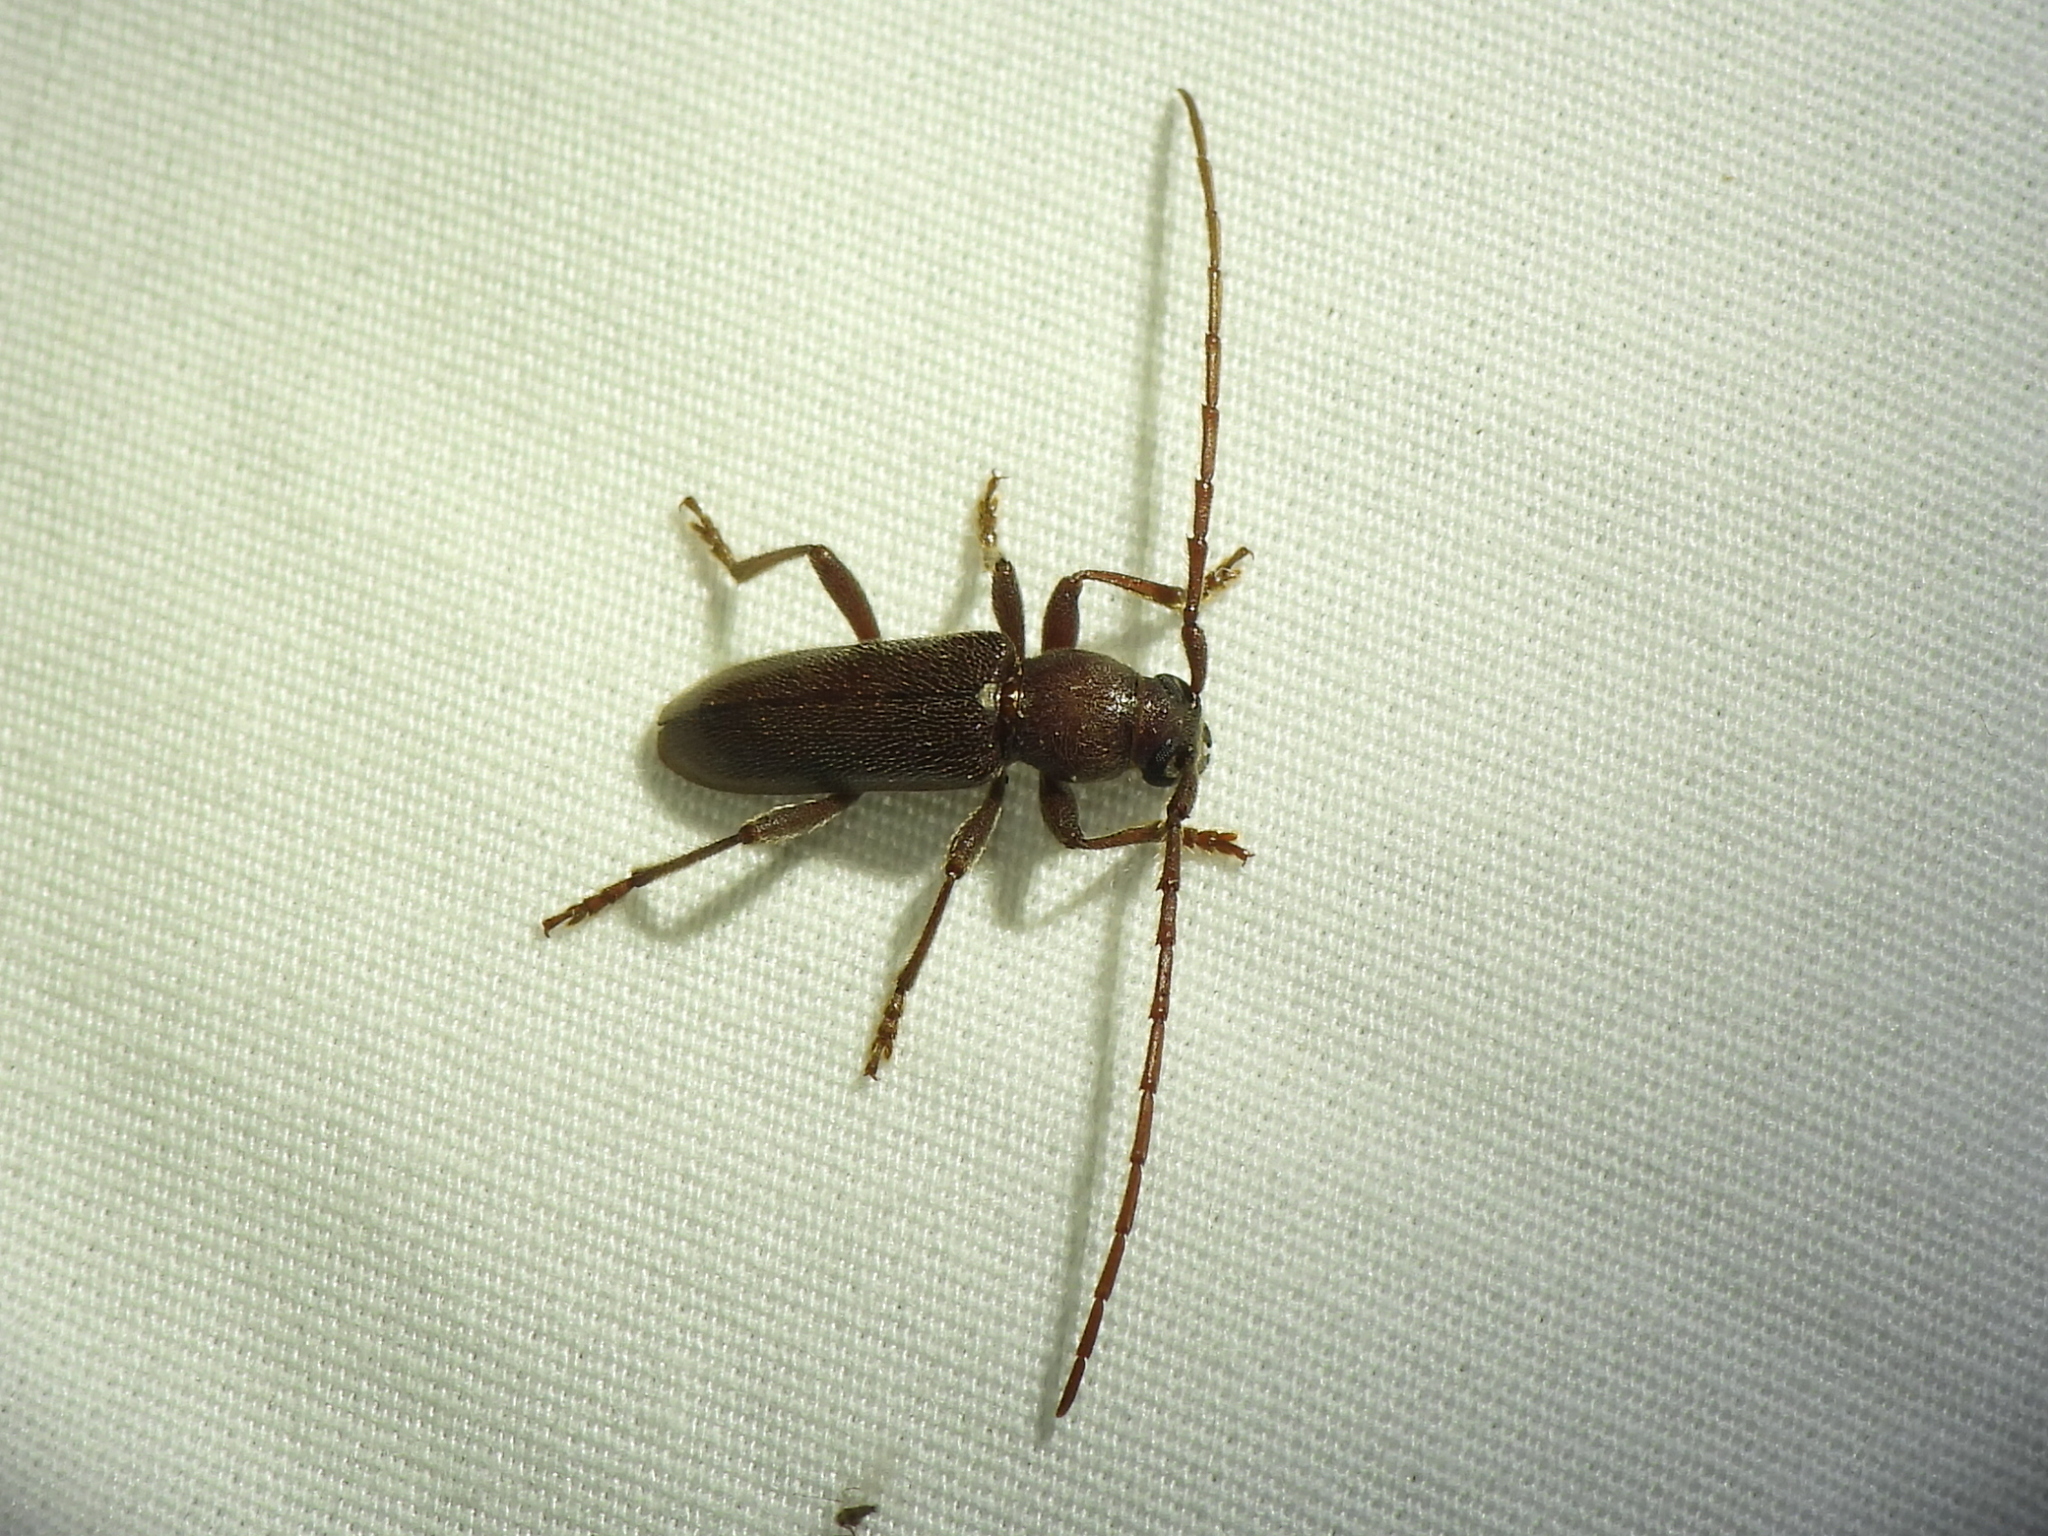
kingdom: Animalia
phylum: Arthropoda
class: Insecta
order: Coleoptera
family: Cerambycidae
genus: Anelaphus
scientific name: Anelaphus moestus
